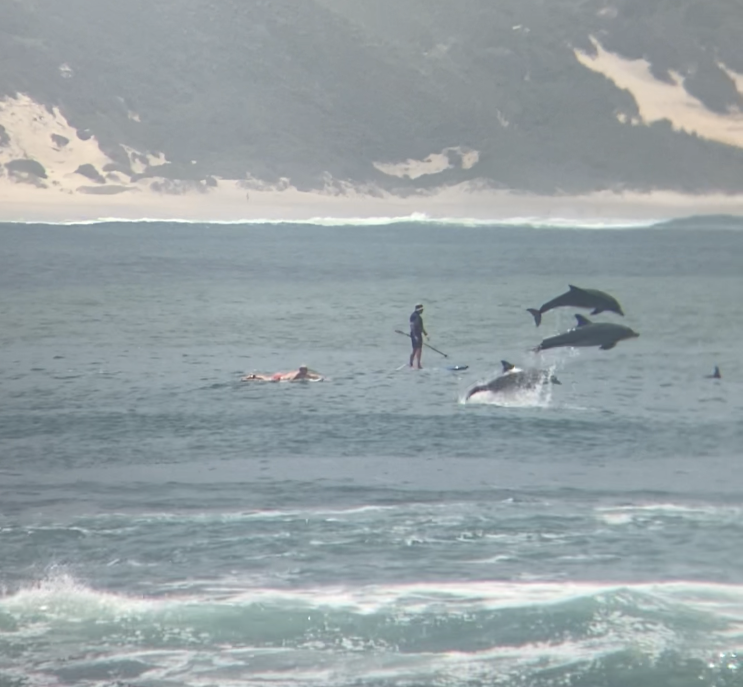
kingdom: Animalia
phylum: Chordata
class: Mammalia
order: Cetacea
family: Delphinidae
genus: Tursiops
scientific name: Tursiops truncatus
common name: Bottlenose dolphin
